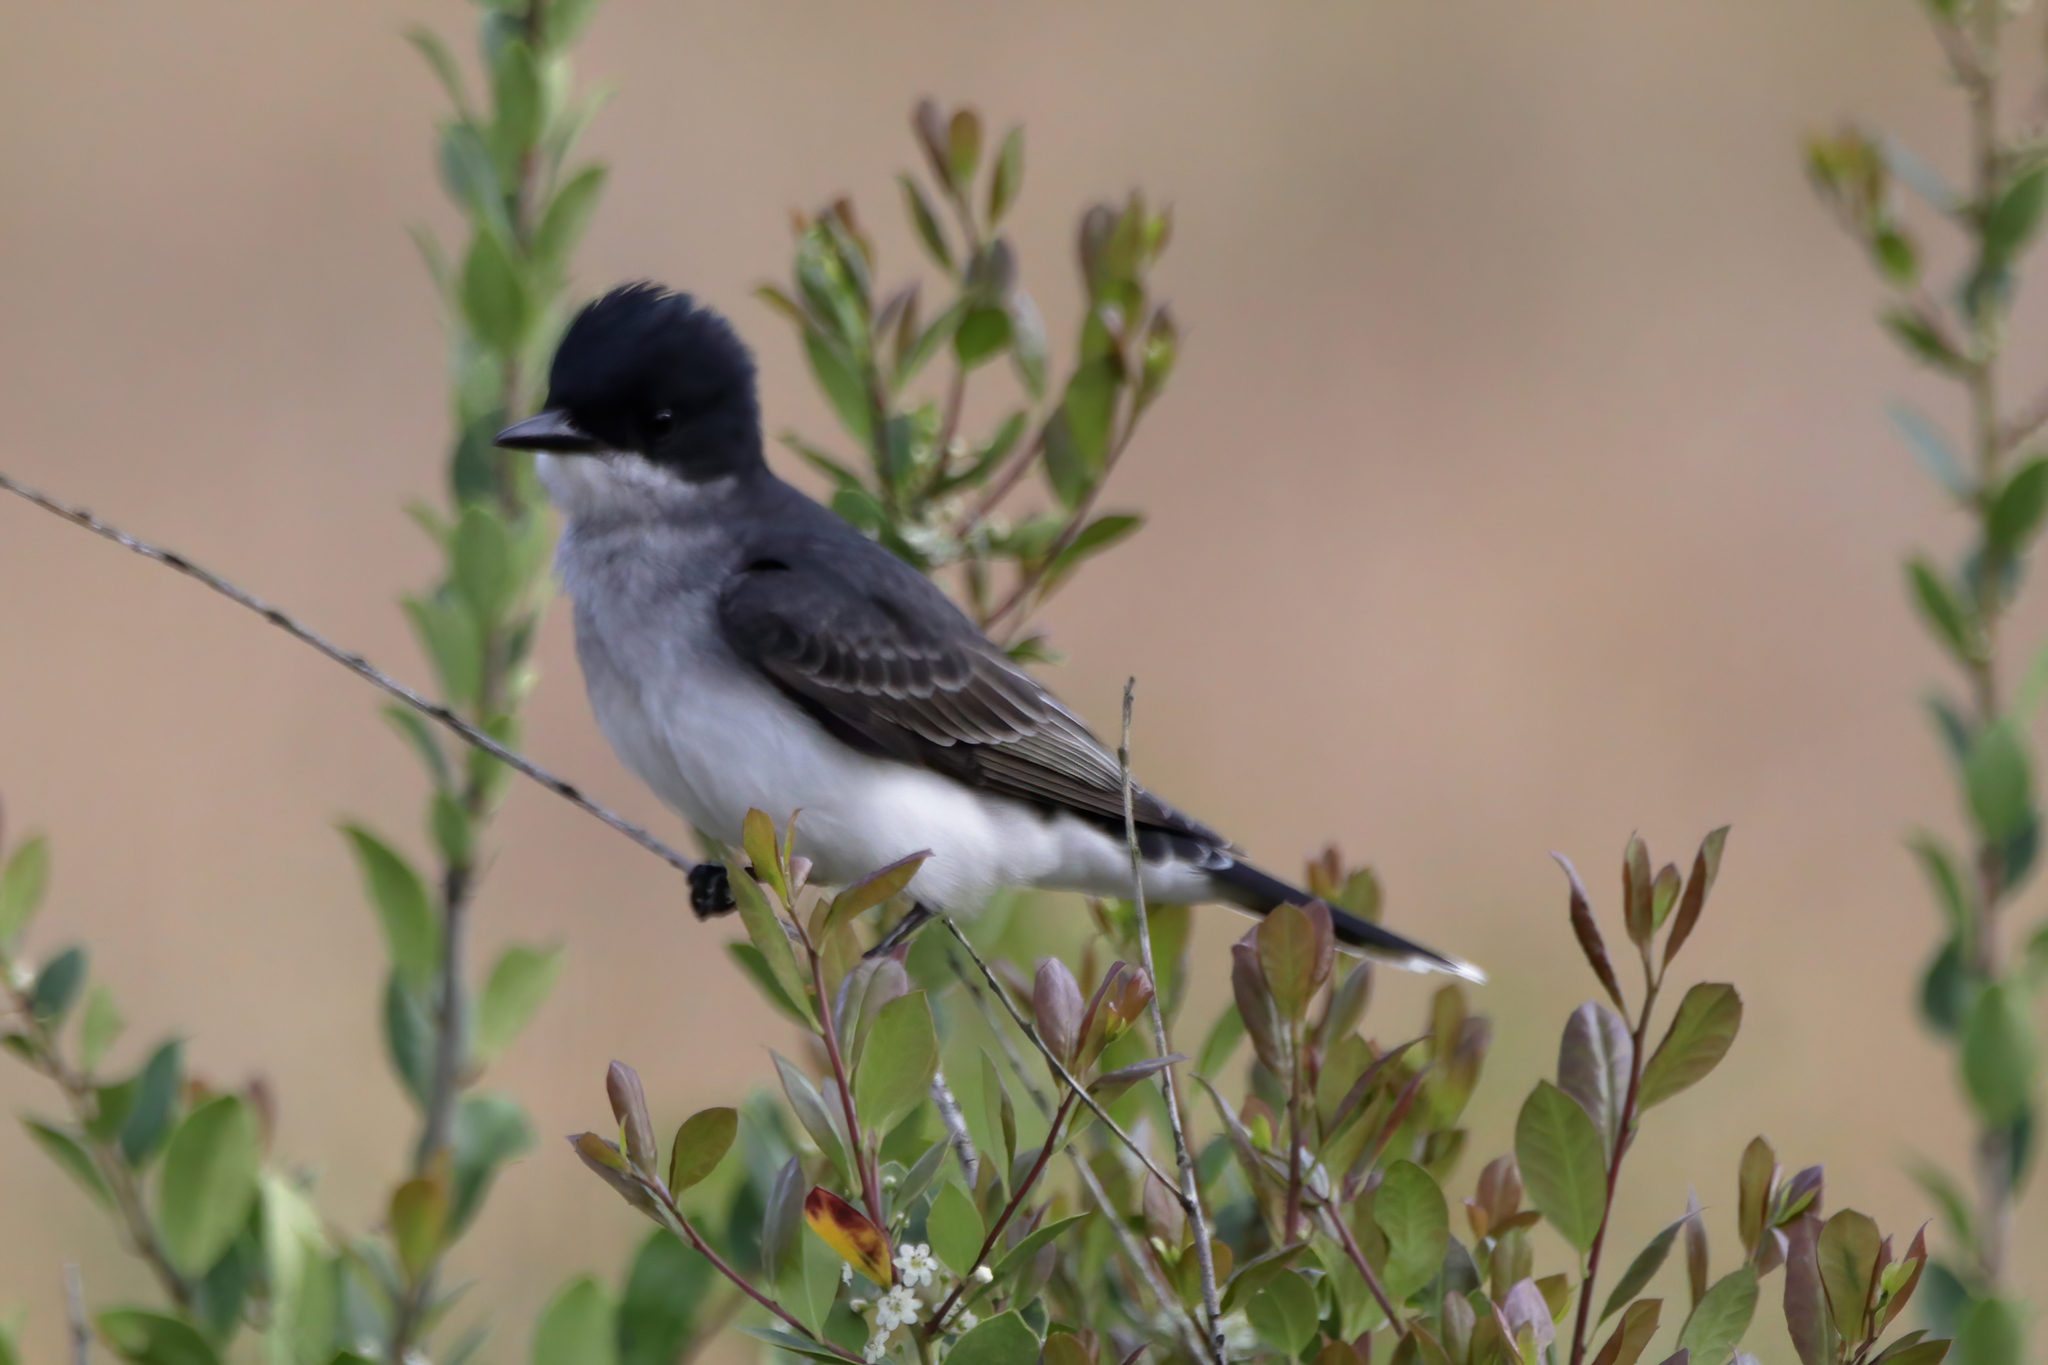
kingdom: Animalia
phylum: Chordata
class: Aves
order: Passeriformes
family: Tyrannidae
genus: Tyrannus
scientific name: Tyrannus tyrannus
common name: Eastern kingbird
